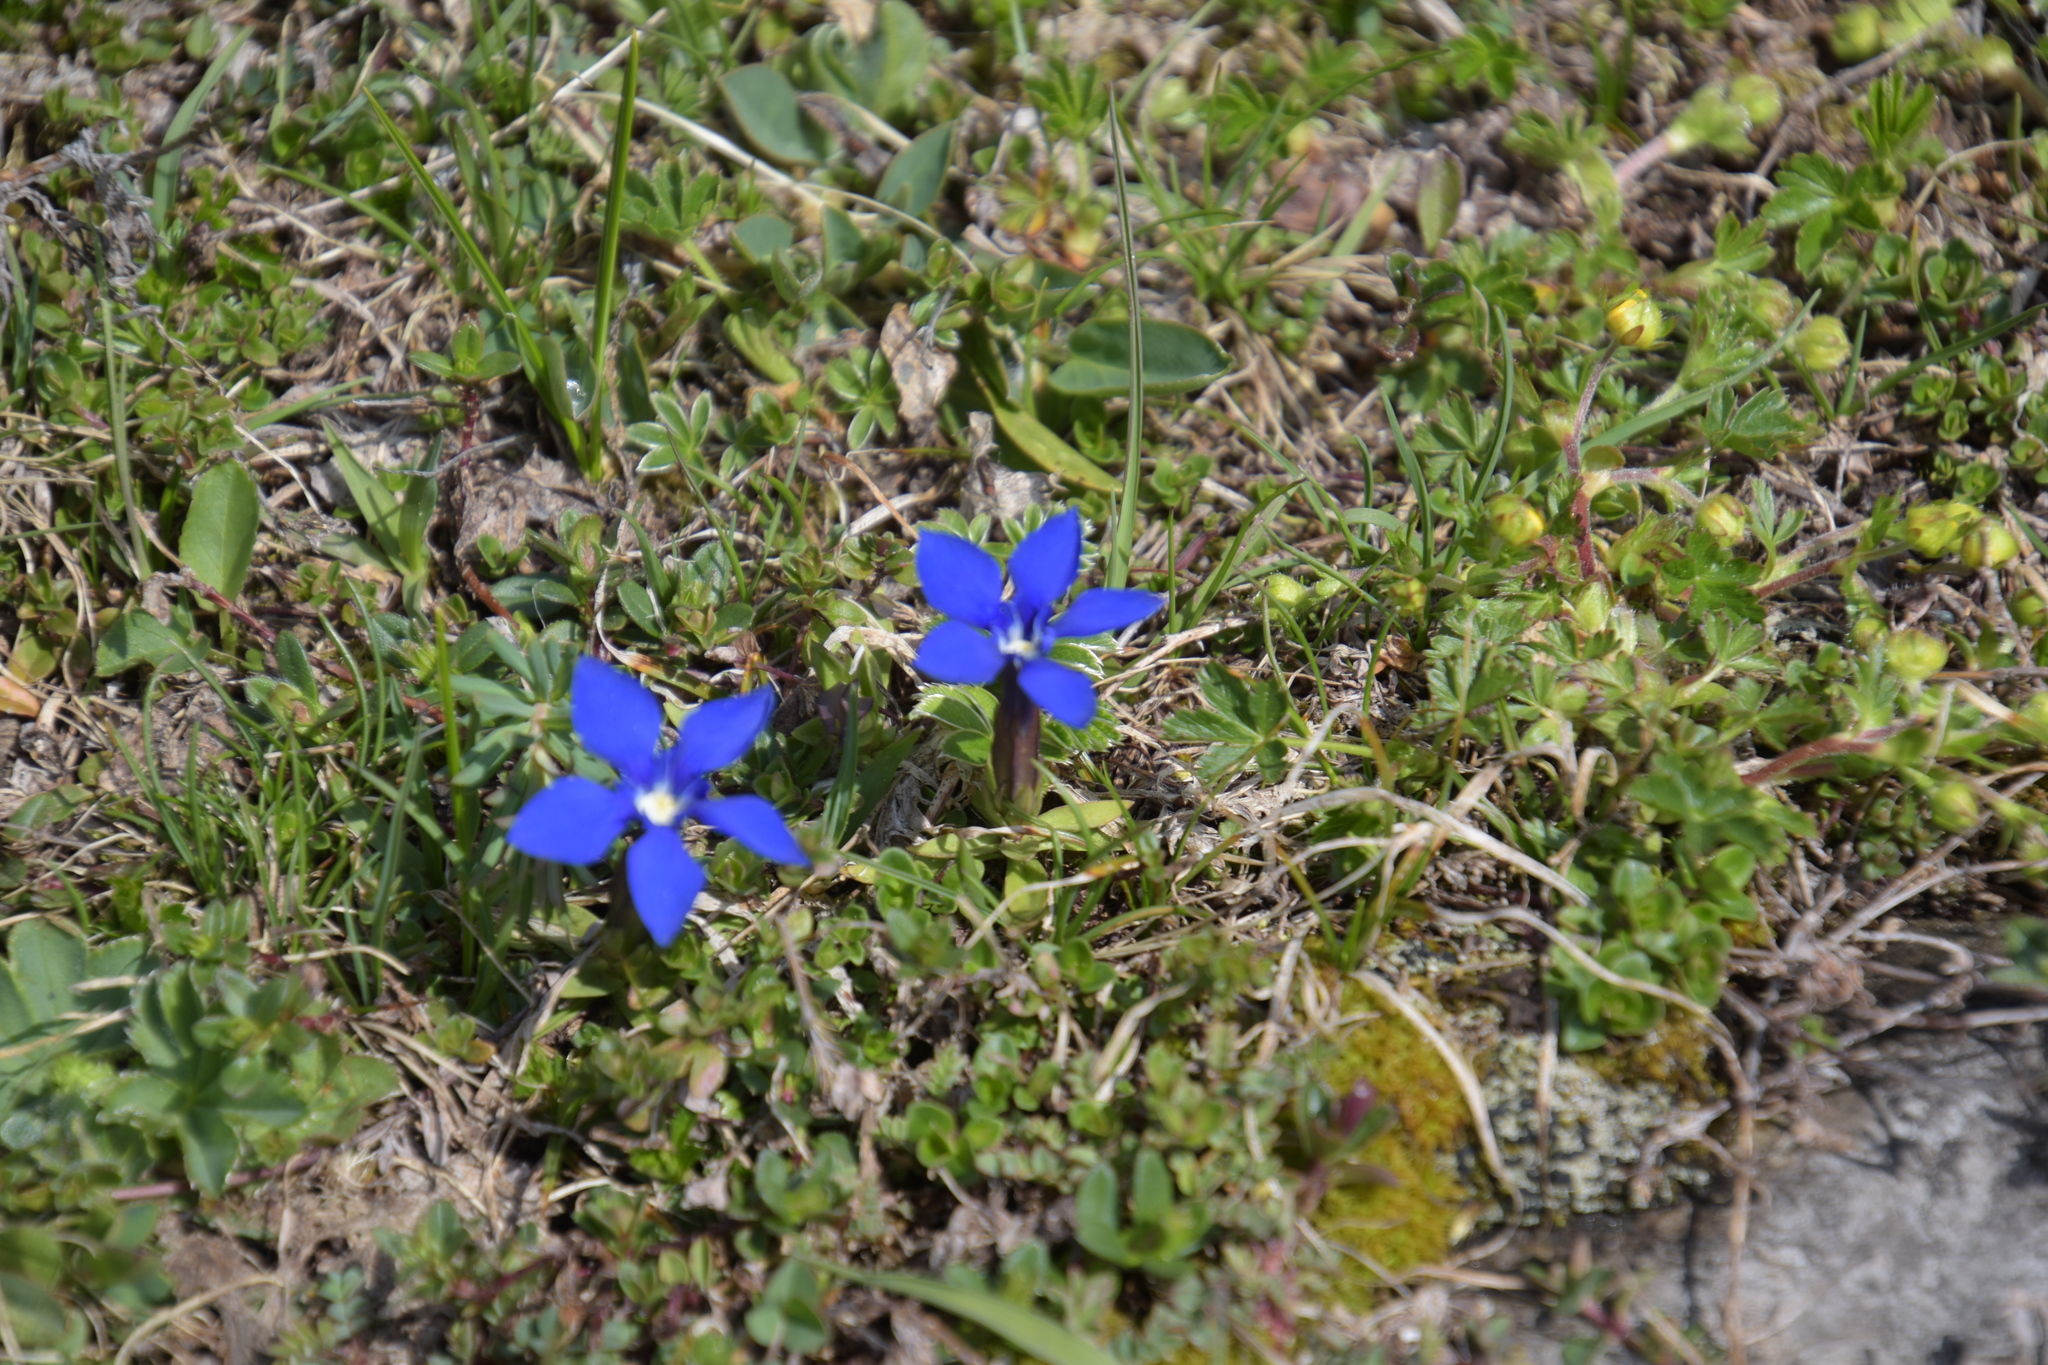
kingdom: Plantae
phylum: Tracheophyta
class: Magnoliopsida
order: Gentianales
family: Gentianaceae
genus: Gentiana
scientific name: Gentiana verna
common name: Spring gentian
